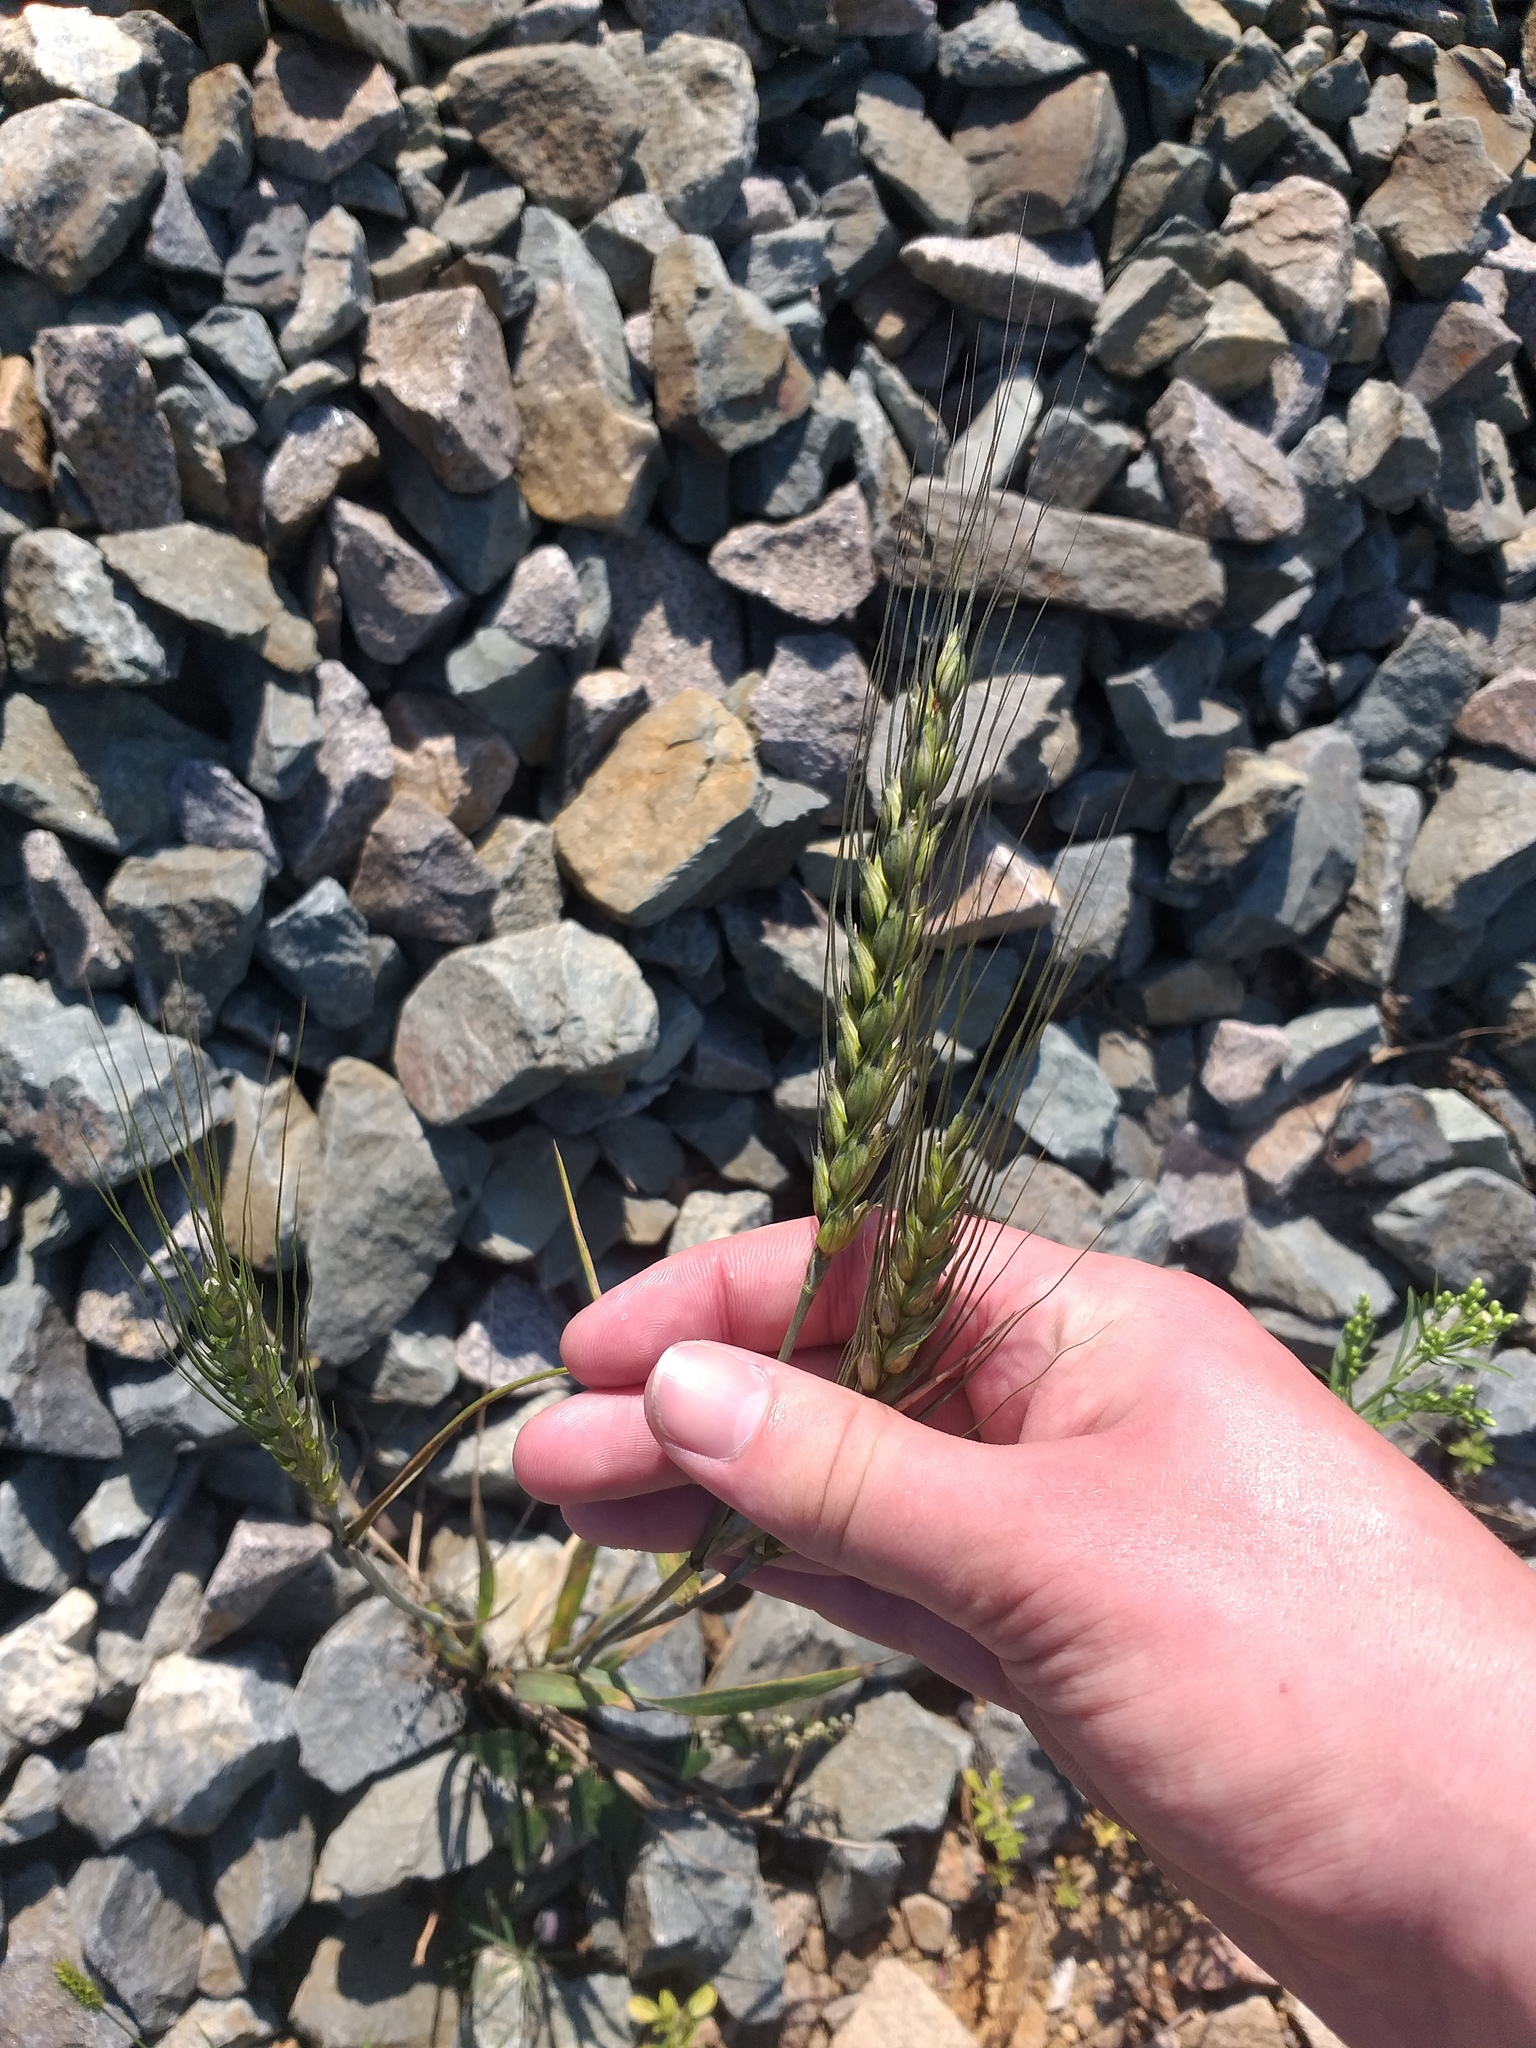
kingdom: Plantae
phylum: Tracheophyta
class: Liliopsida
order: Poales
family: Poaceae
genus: Triticum
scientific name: Triticum aestivum
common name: Common wheat
